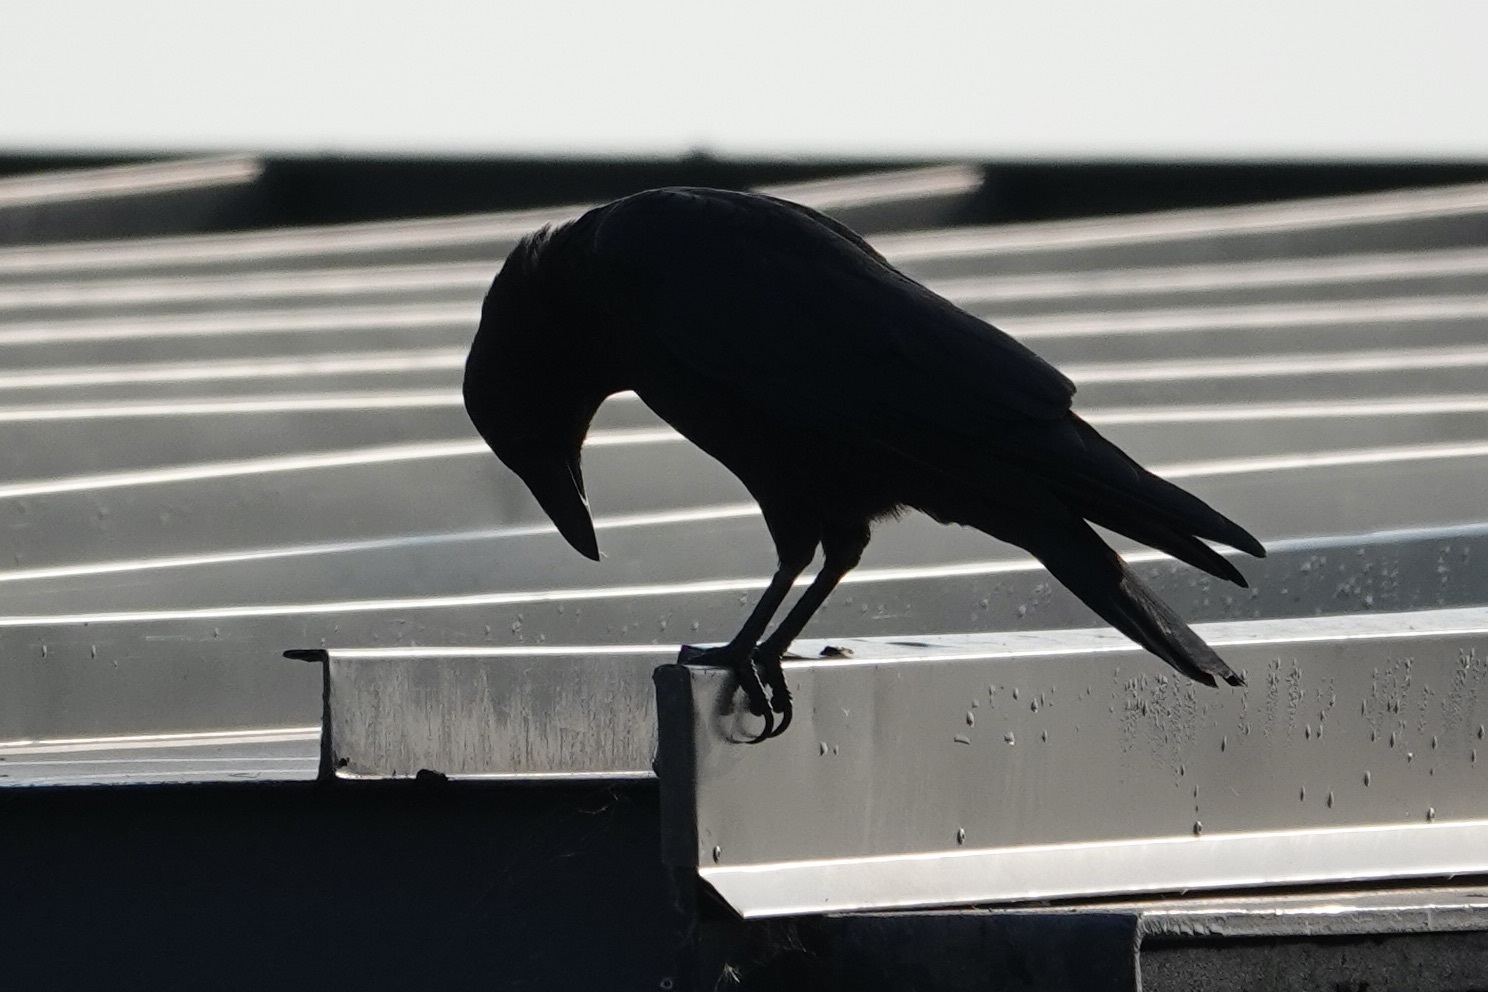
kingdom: Animalia
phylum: Chordata
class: Aves
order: Passeriformes
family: Corvidae
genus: Corvus
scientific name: Corvus brachyrhynchos
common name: American crow
